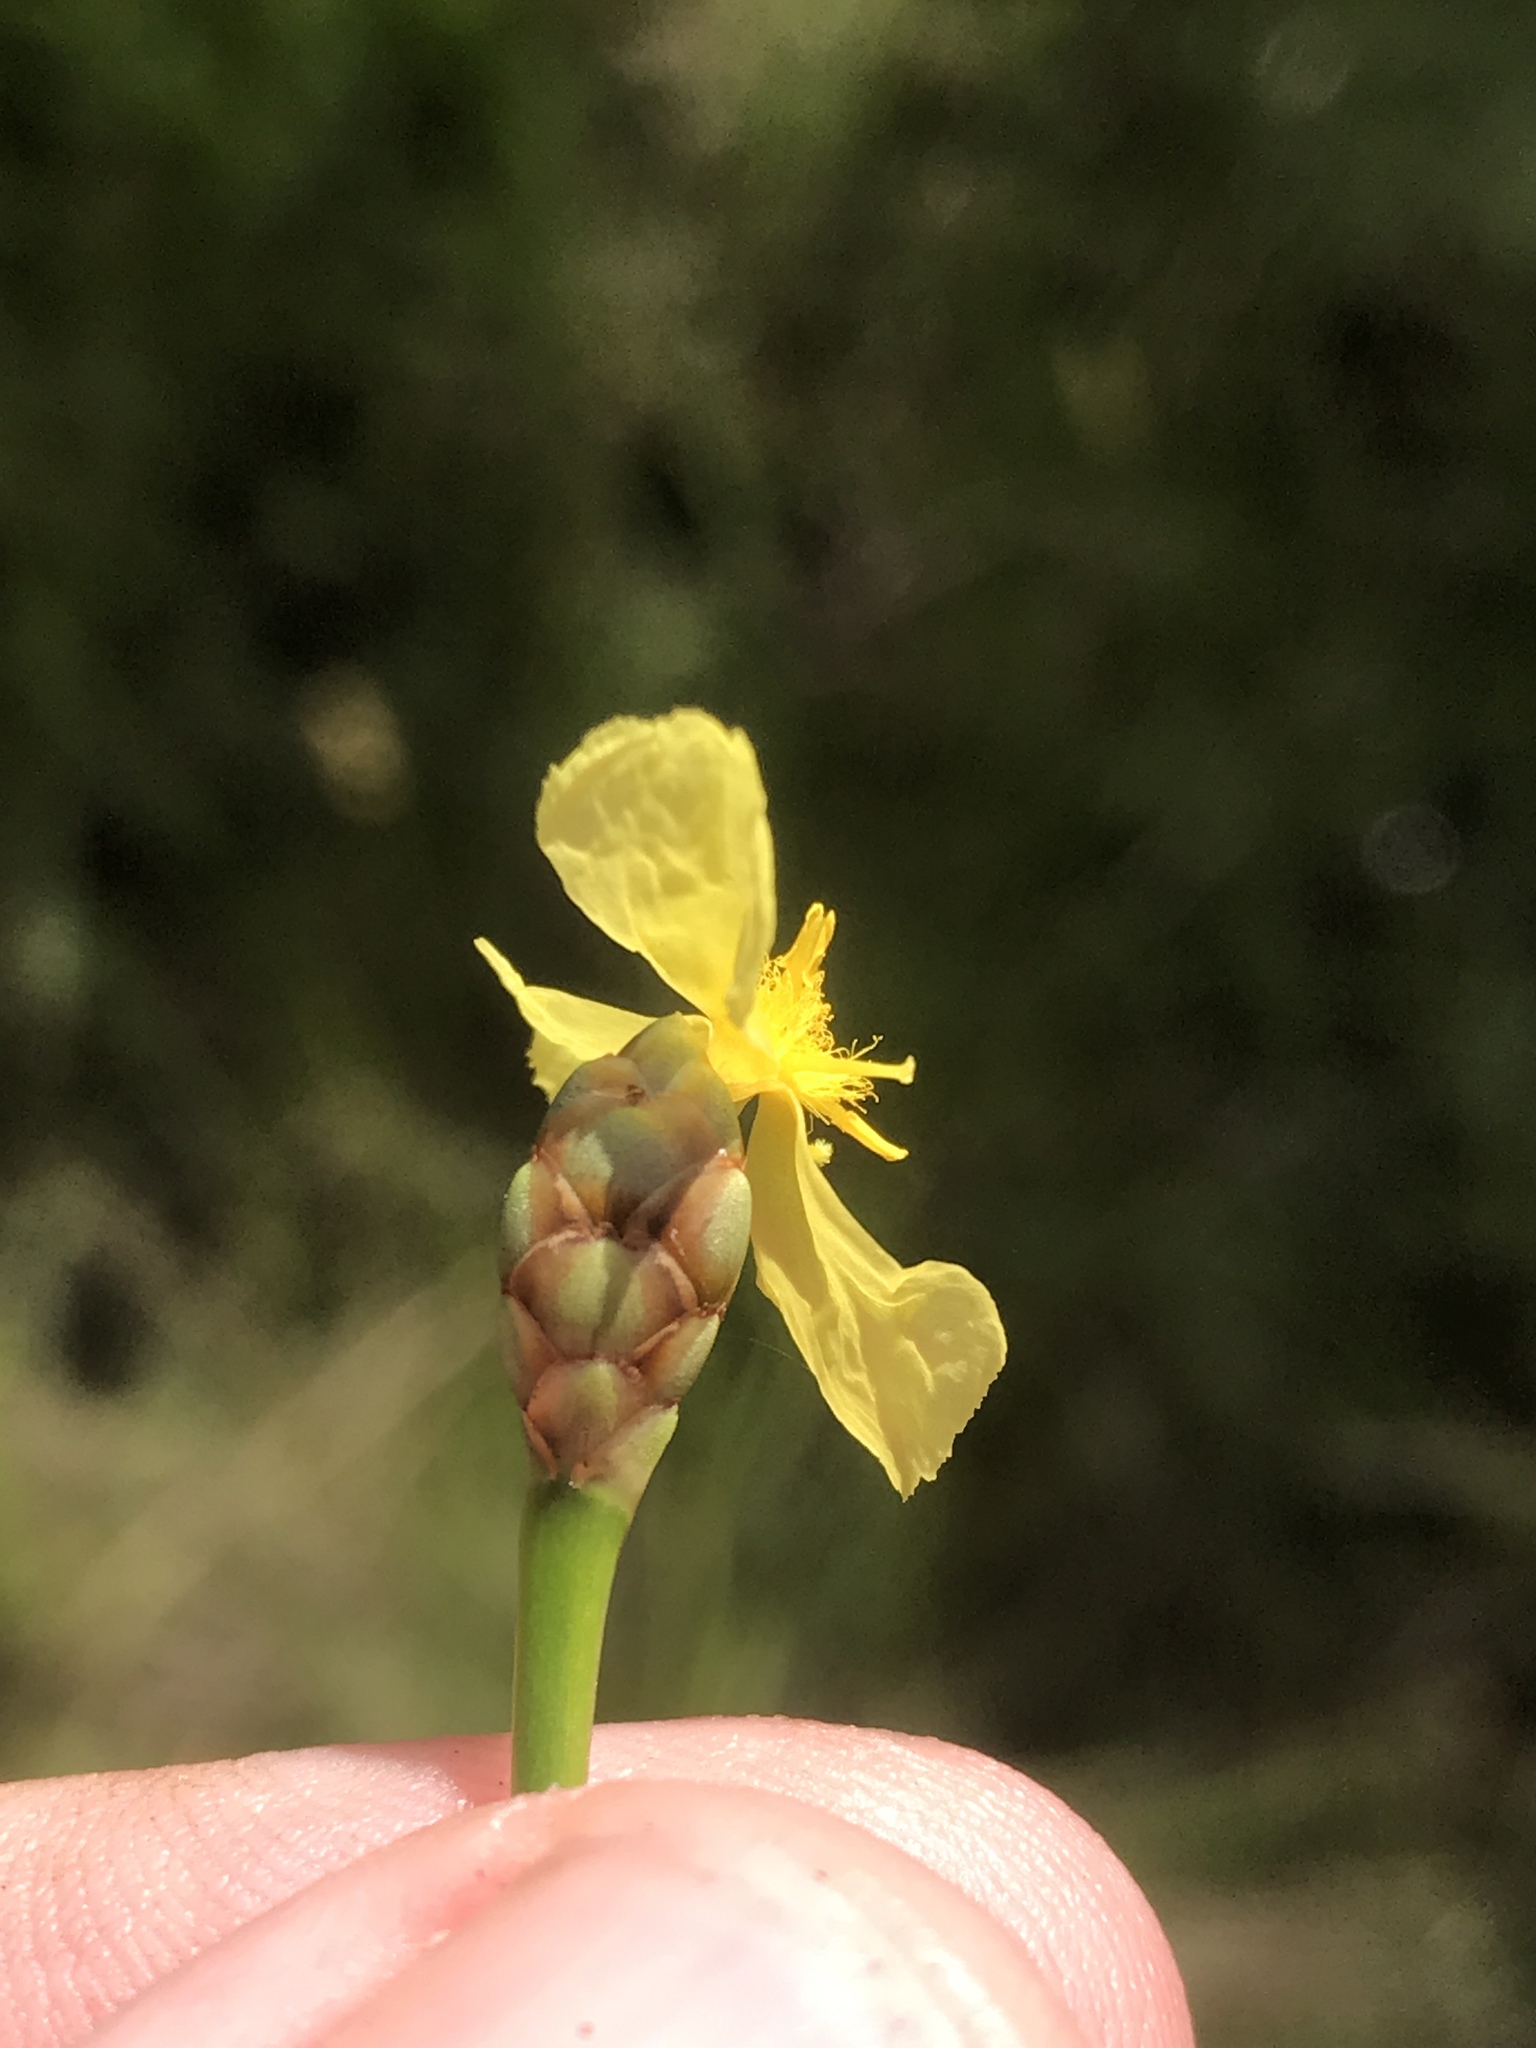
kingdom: Plantae
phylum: Tracheophyta
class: Liliopsida
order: Poales
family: Xyridaceae
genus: Xyris
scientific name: Xyris ambigua
